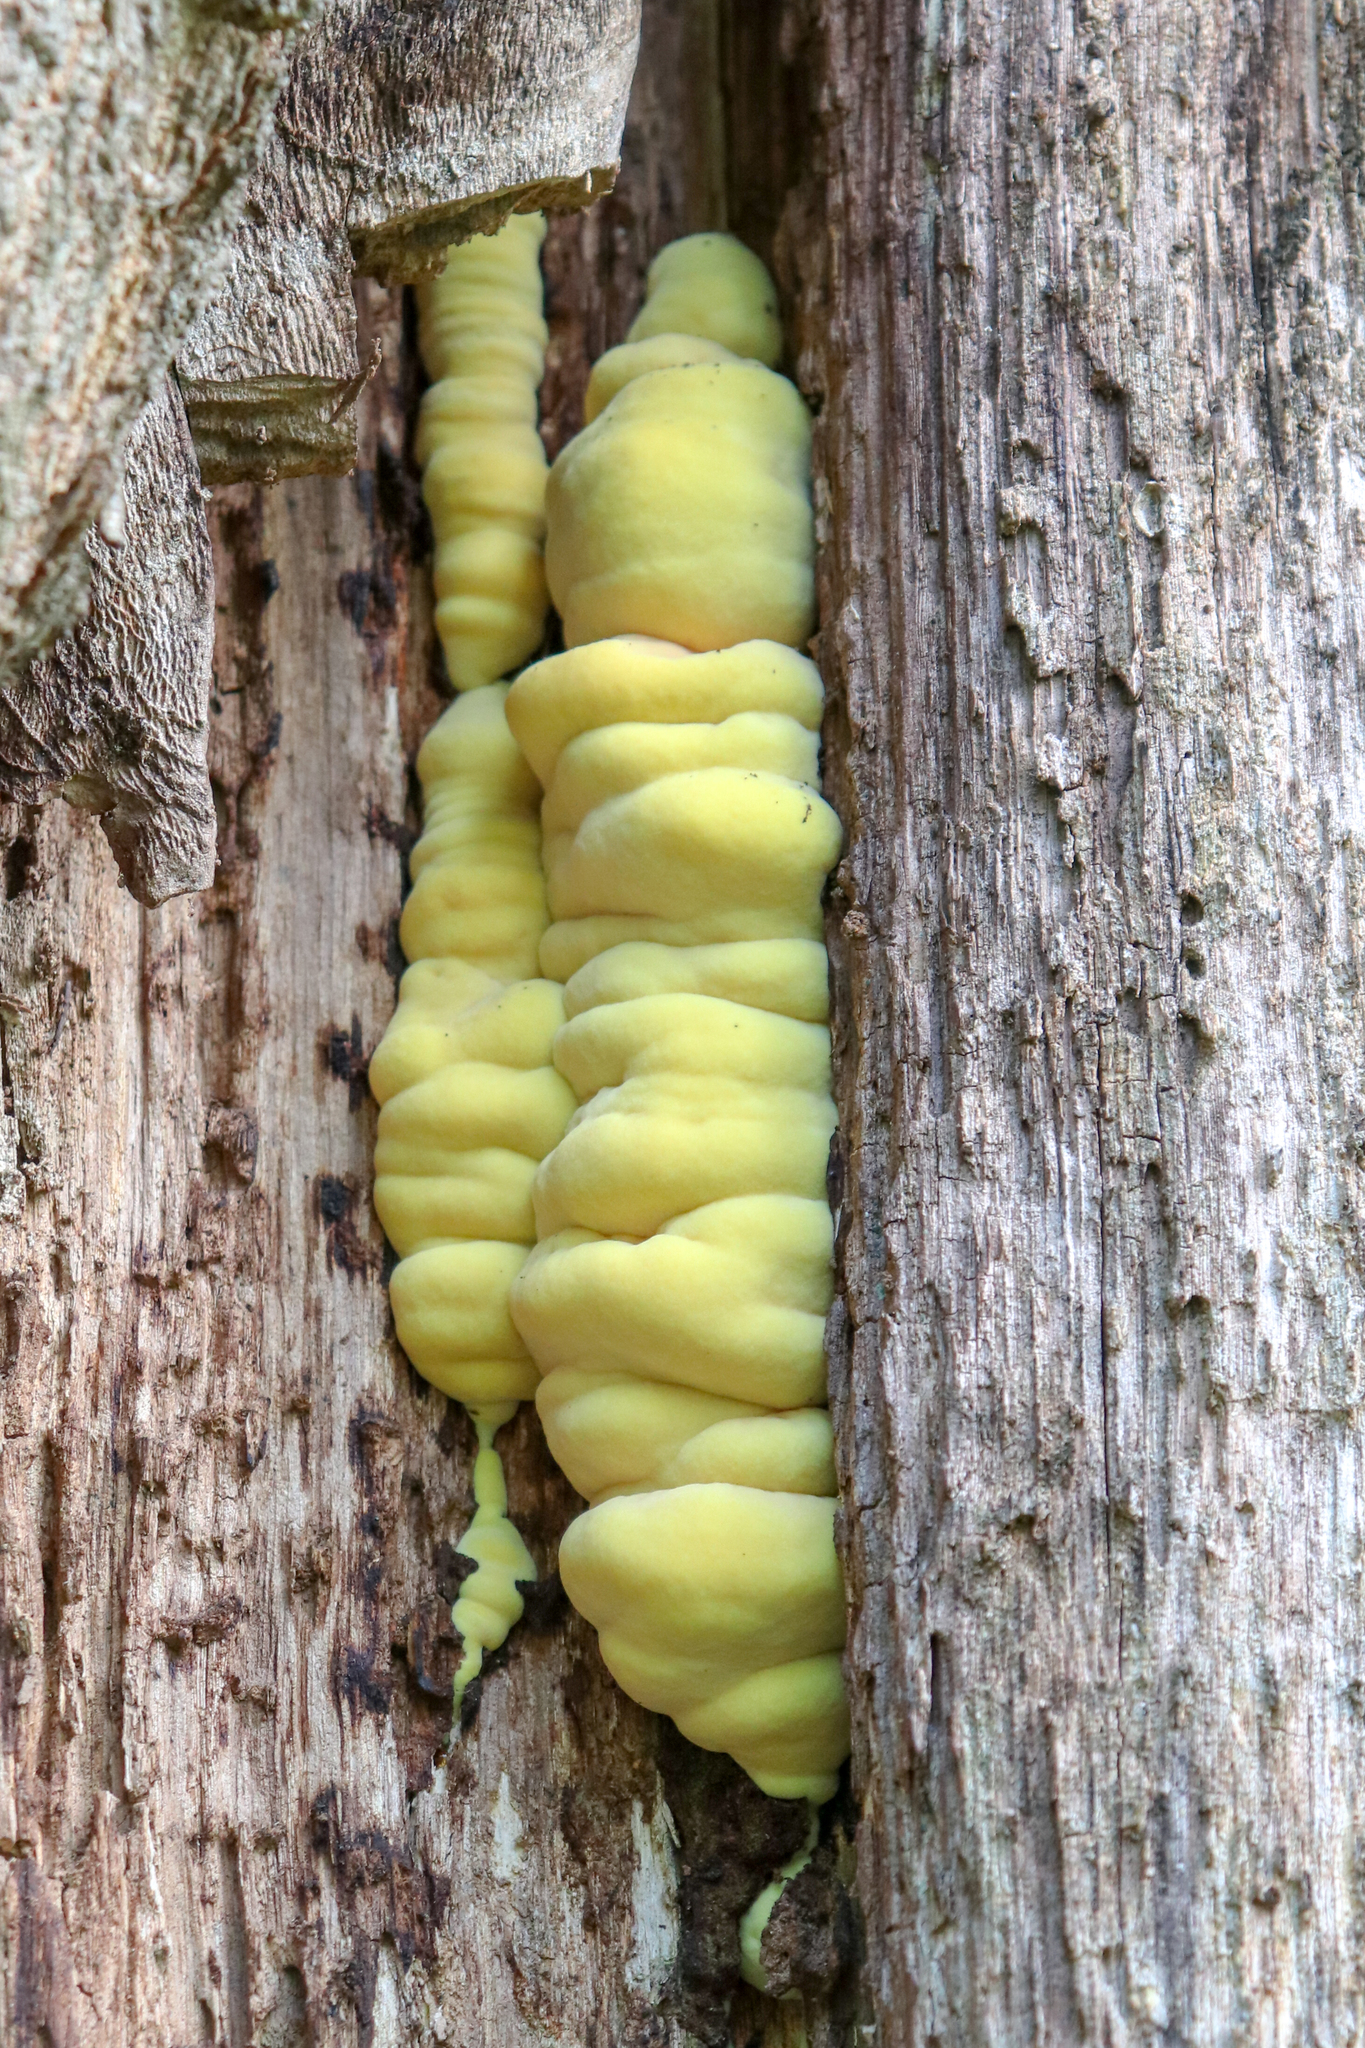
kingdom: Fungi
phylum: Basidiomycota
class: Agaricomycetes
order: Polyporales
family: Laetiporaceae
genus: Laetiporus
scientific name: Laetiporus sulphureus
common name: Chicken of the woods
